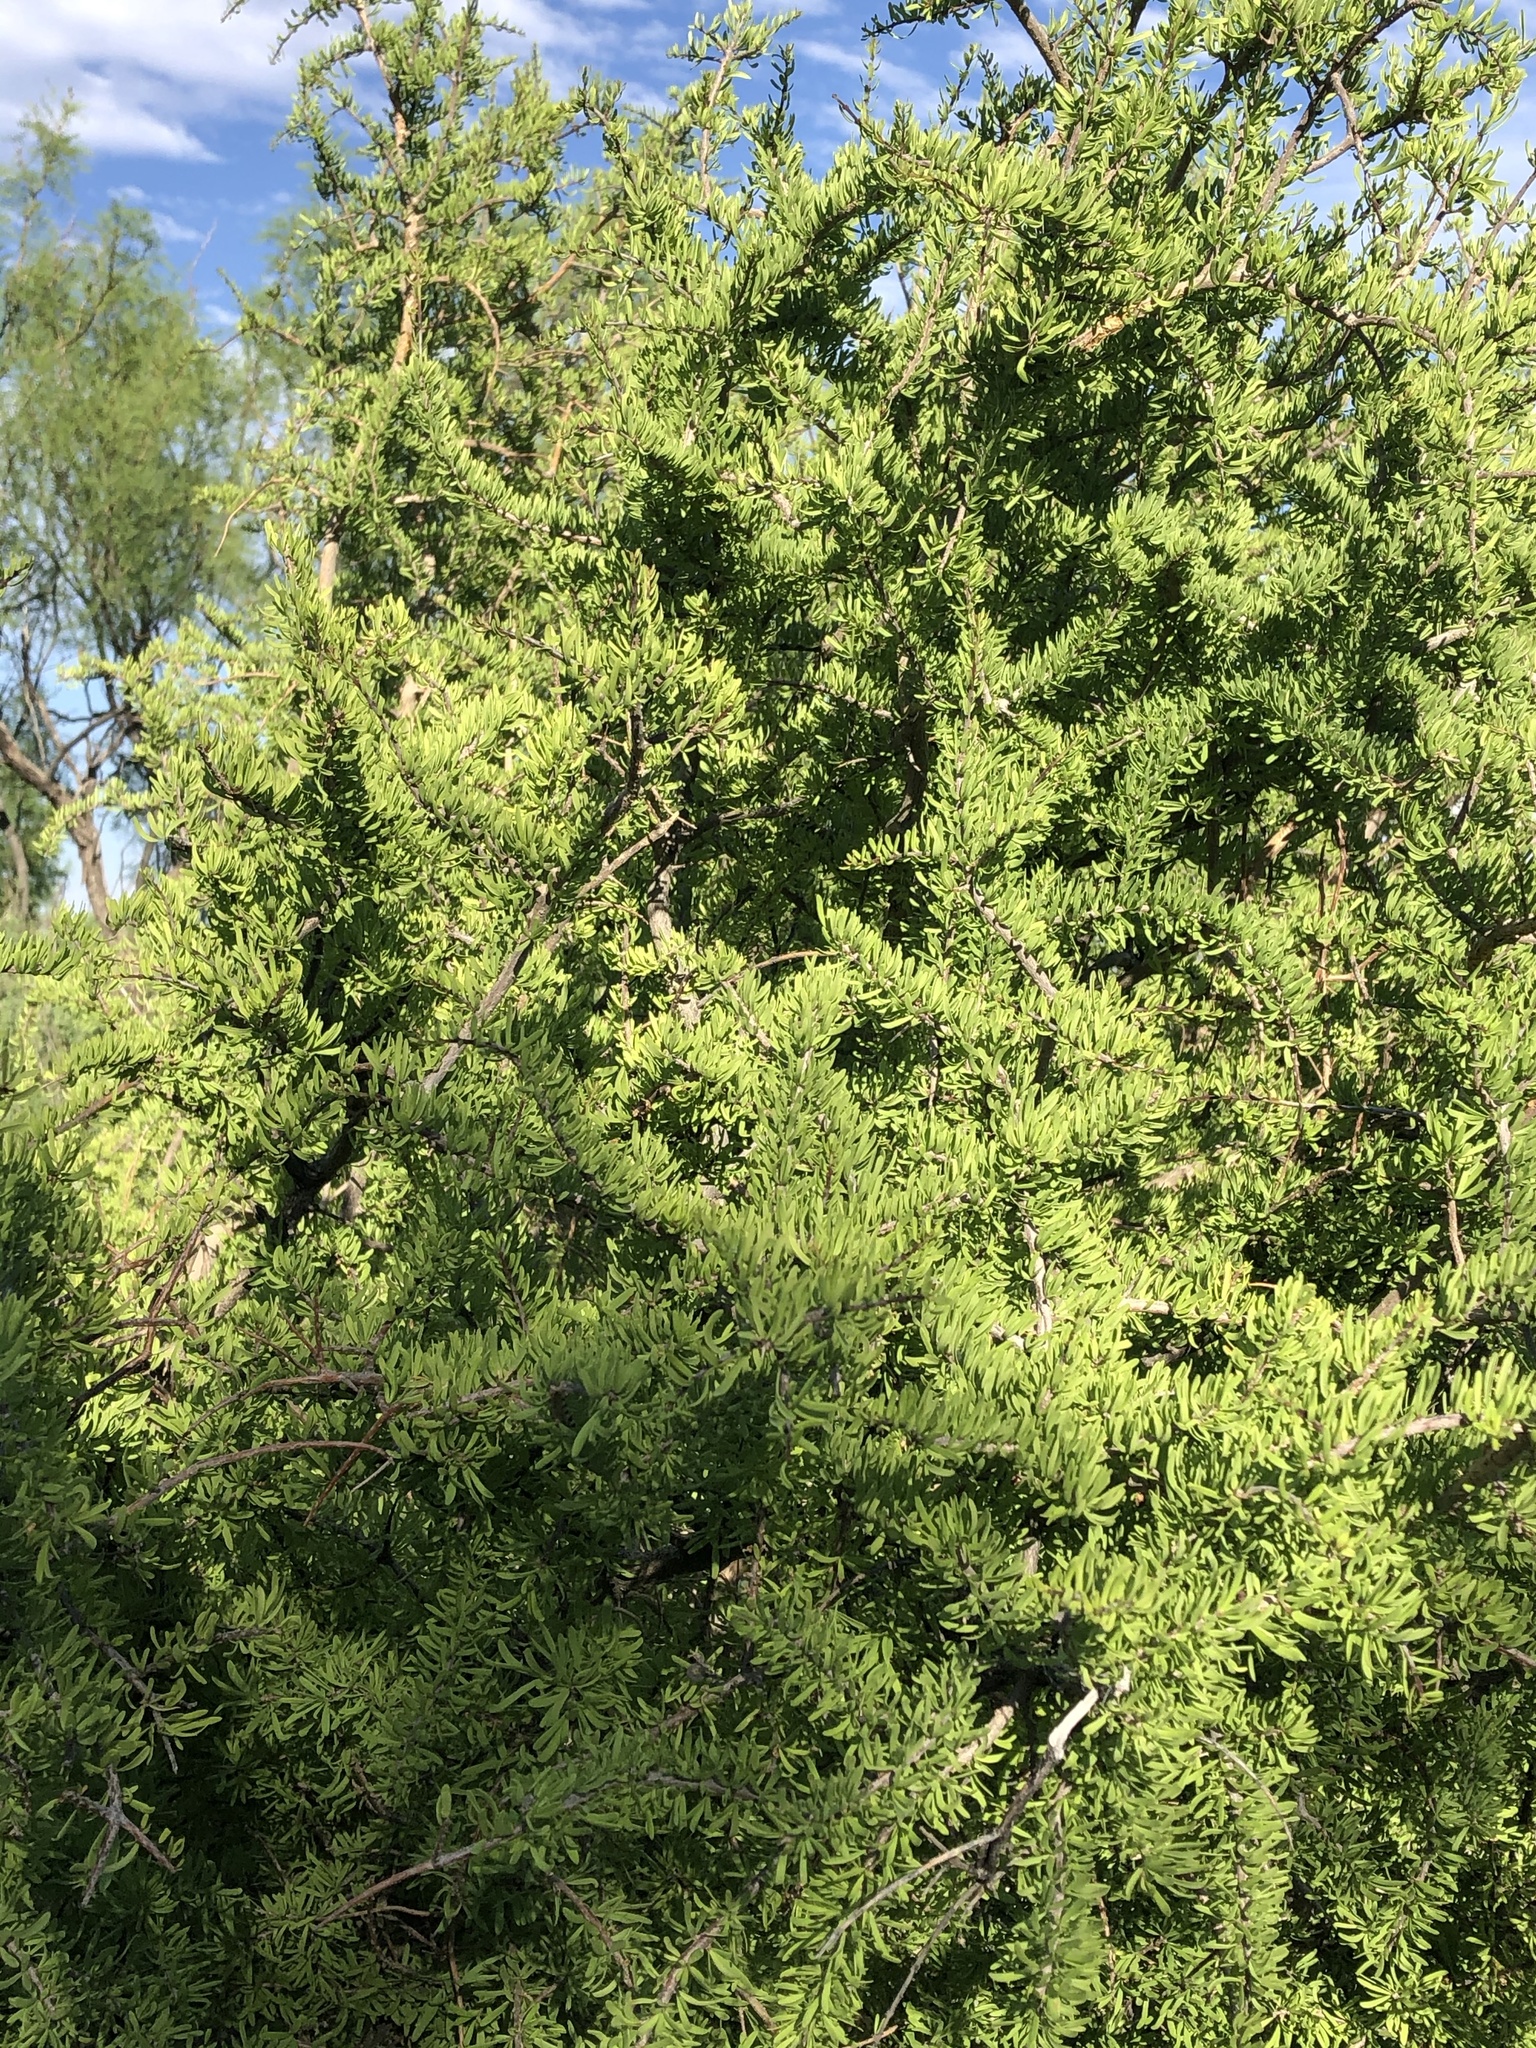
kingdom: Plantae
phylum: Tracheophyta
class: Magnoliopsida
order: Lamiales
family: Oleaceae
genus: Forestiera
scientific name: Forestiera angustifolia
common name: Elbowbush
